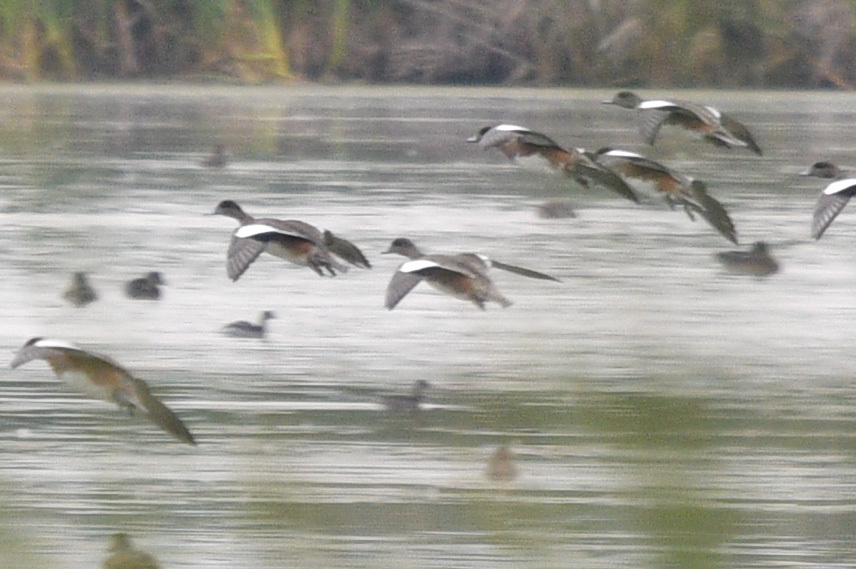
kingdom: Animalia
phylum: Chordata
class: Aves
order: Anseriformes
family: Anatidae
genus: Mareca
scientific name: Mareca americana
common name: American wigeon
